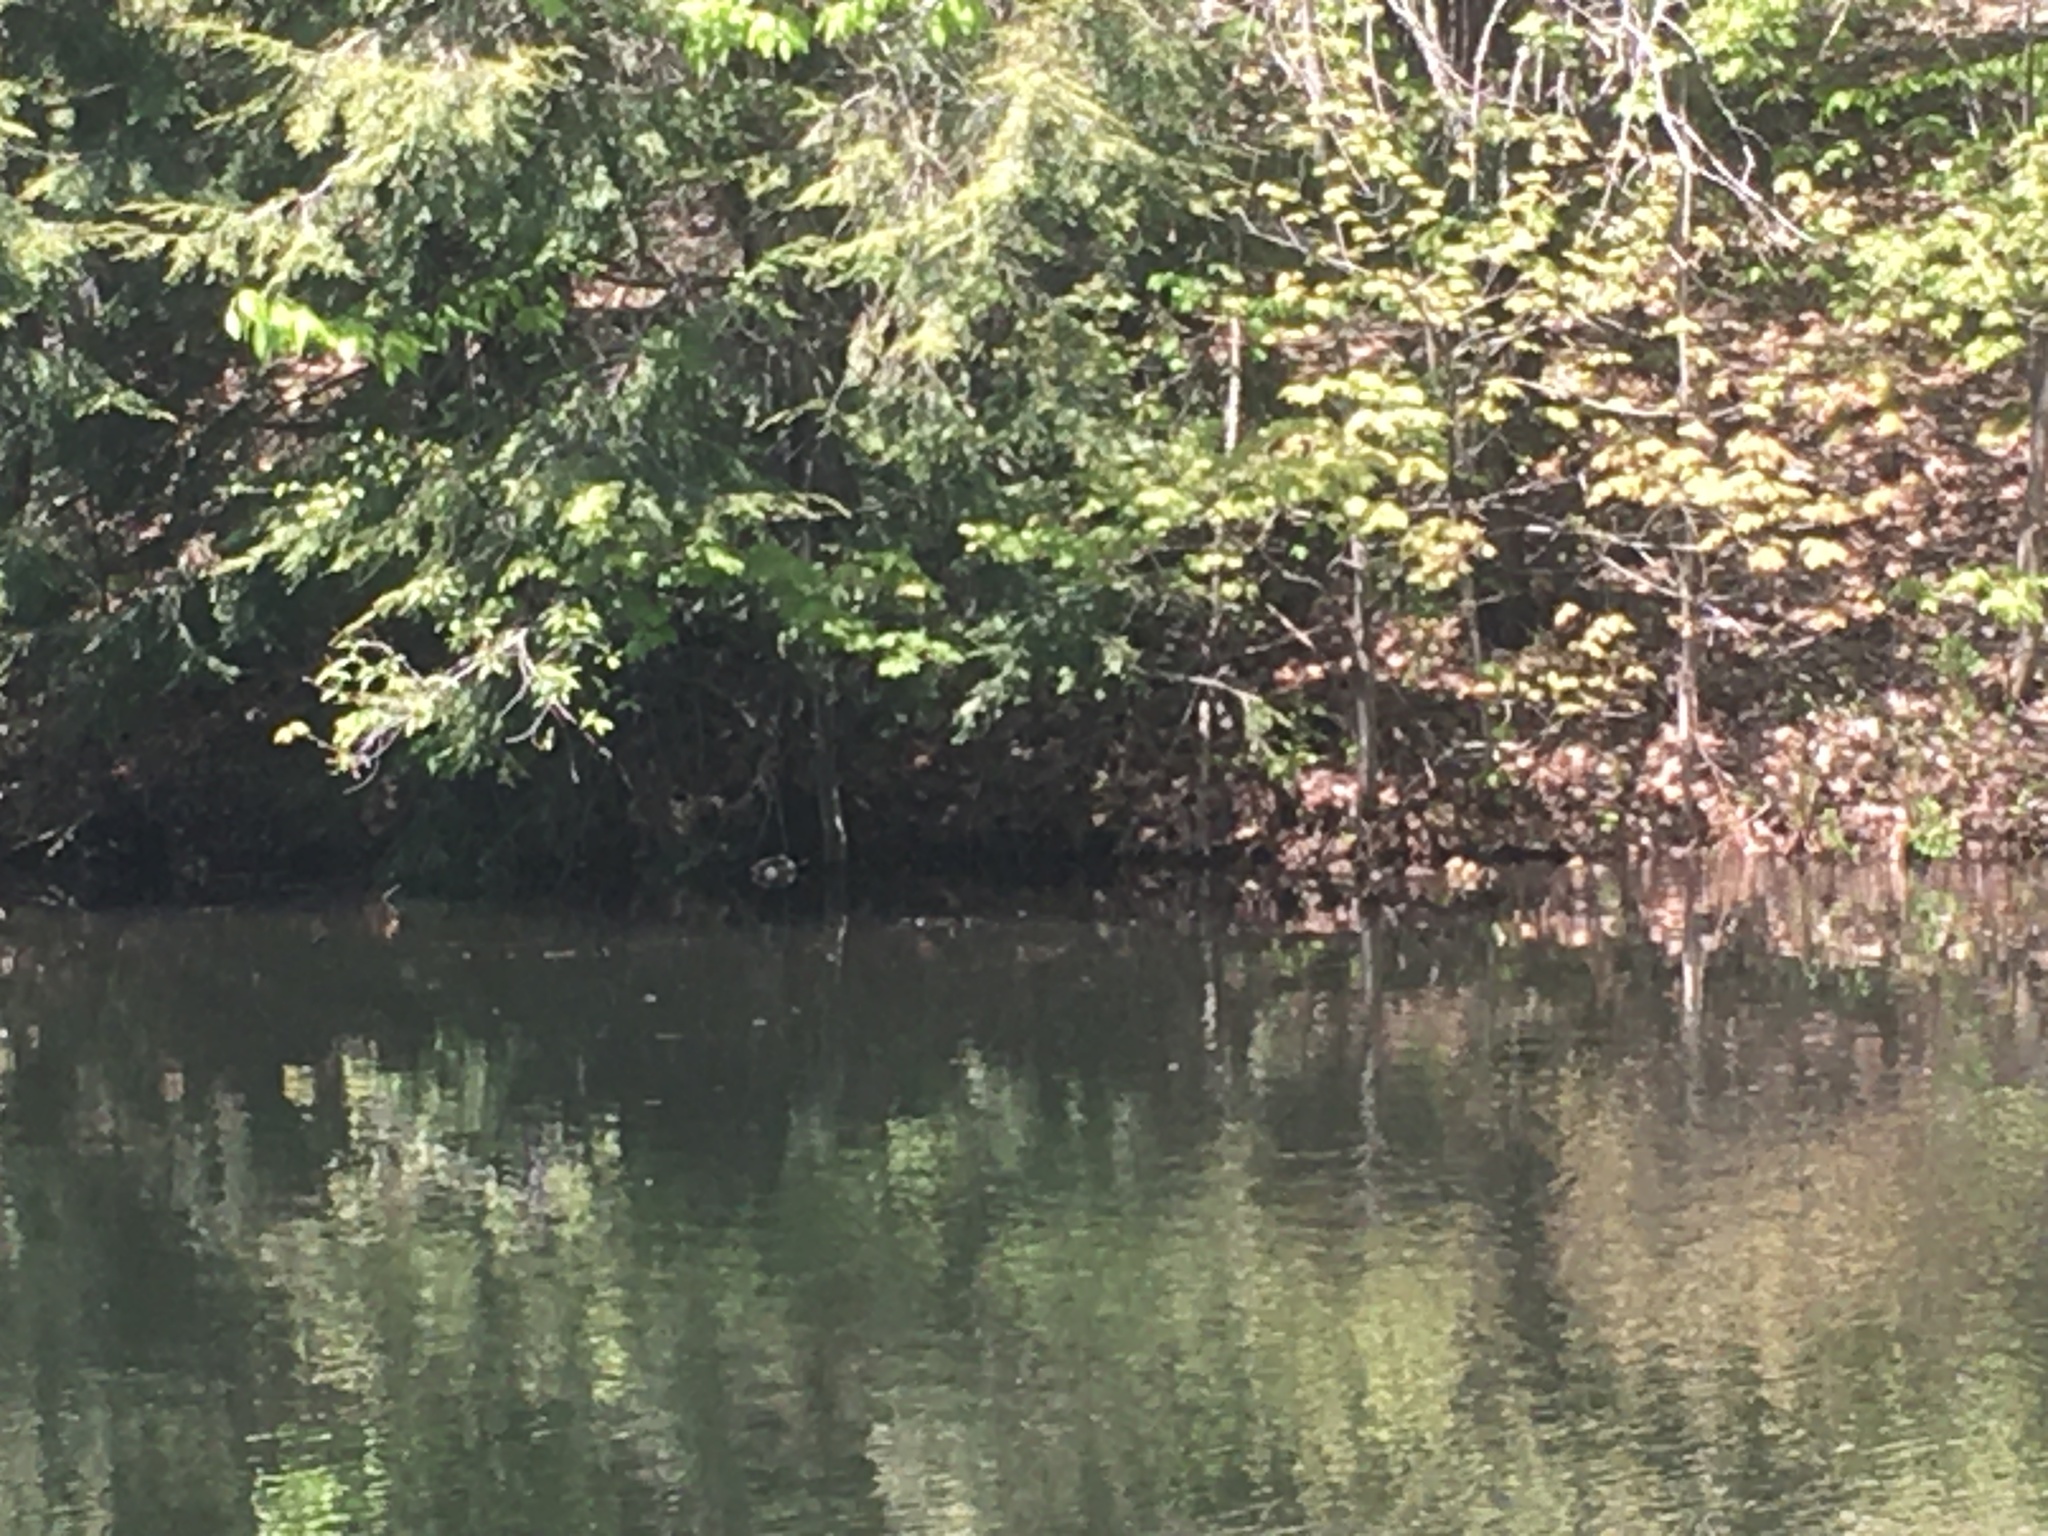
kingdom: Animalia
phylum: Chordata
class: Aves
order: Anseriformes
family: Anatidae
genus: Anas
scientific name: Anas platyrhynchos
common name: Mallard
